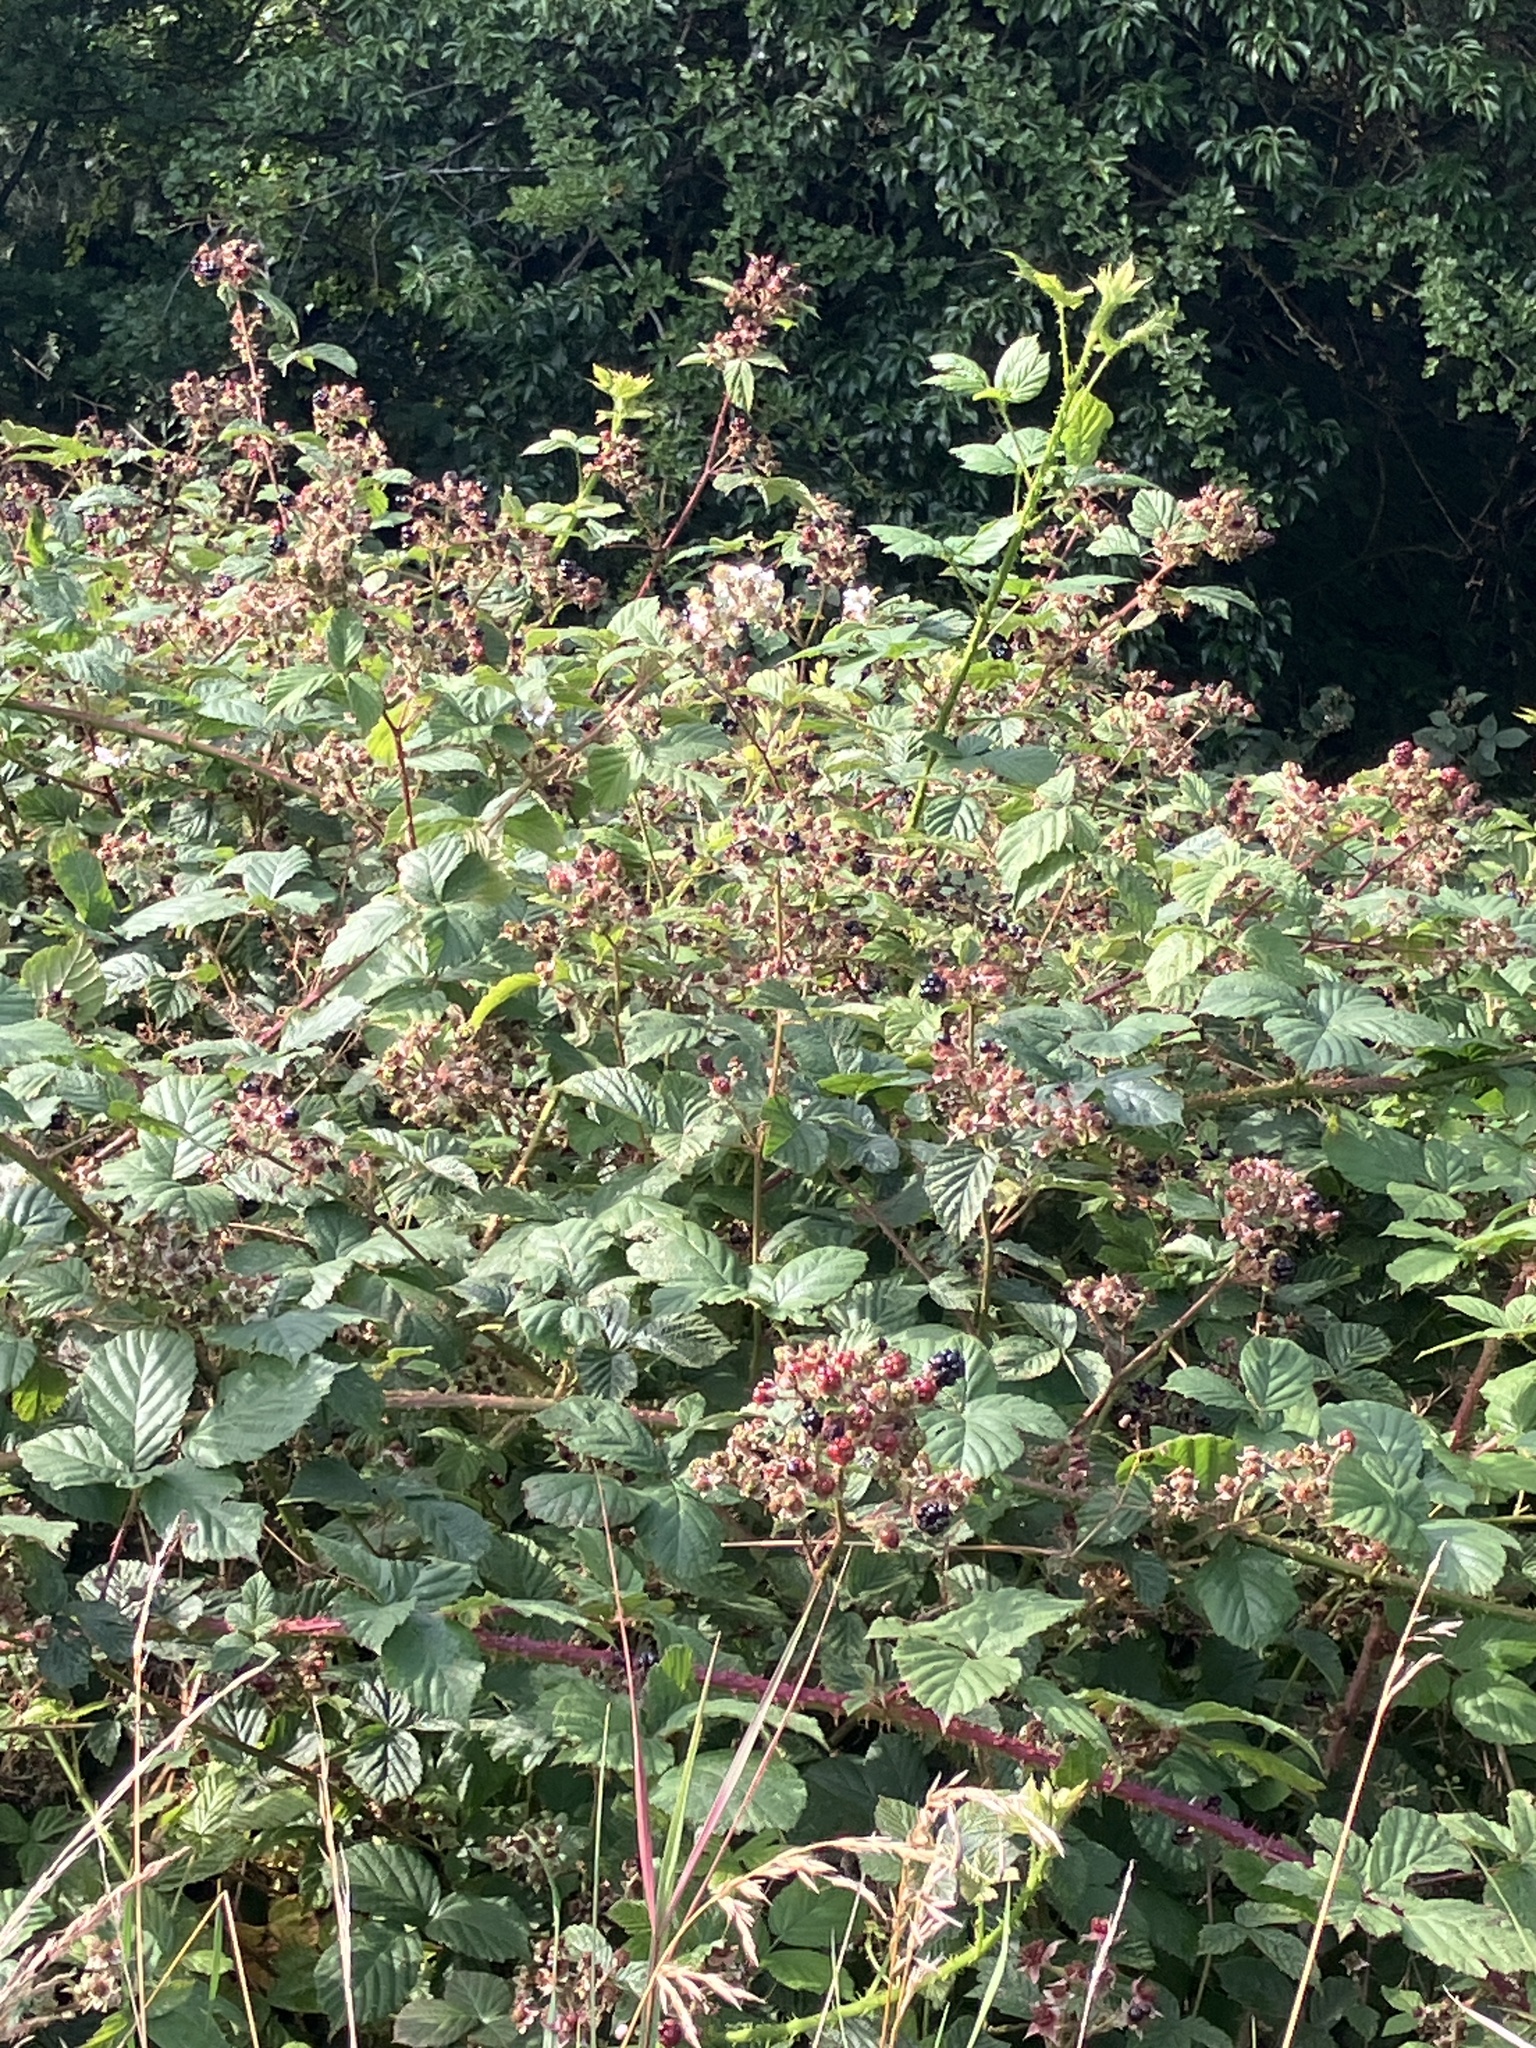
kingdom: Plantae
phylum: Tracheophyta
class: Magnoliopsida
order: Rosales
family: Rosaceae
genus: Rubus
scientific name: Rubus fruticosus
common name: Blackberry, bramble
